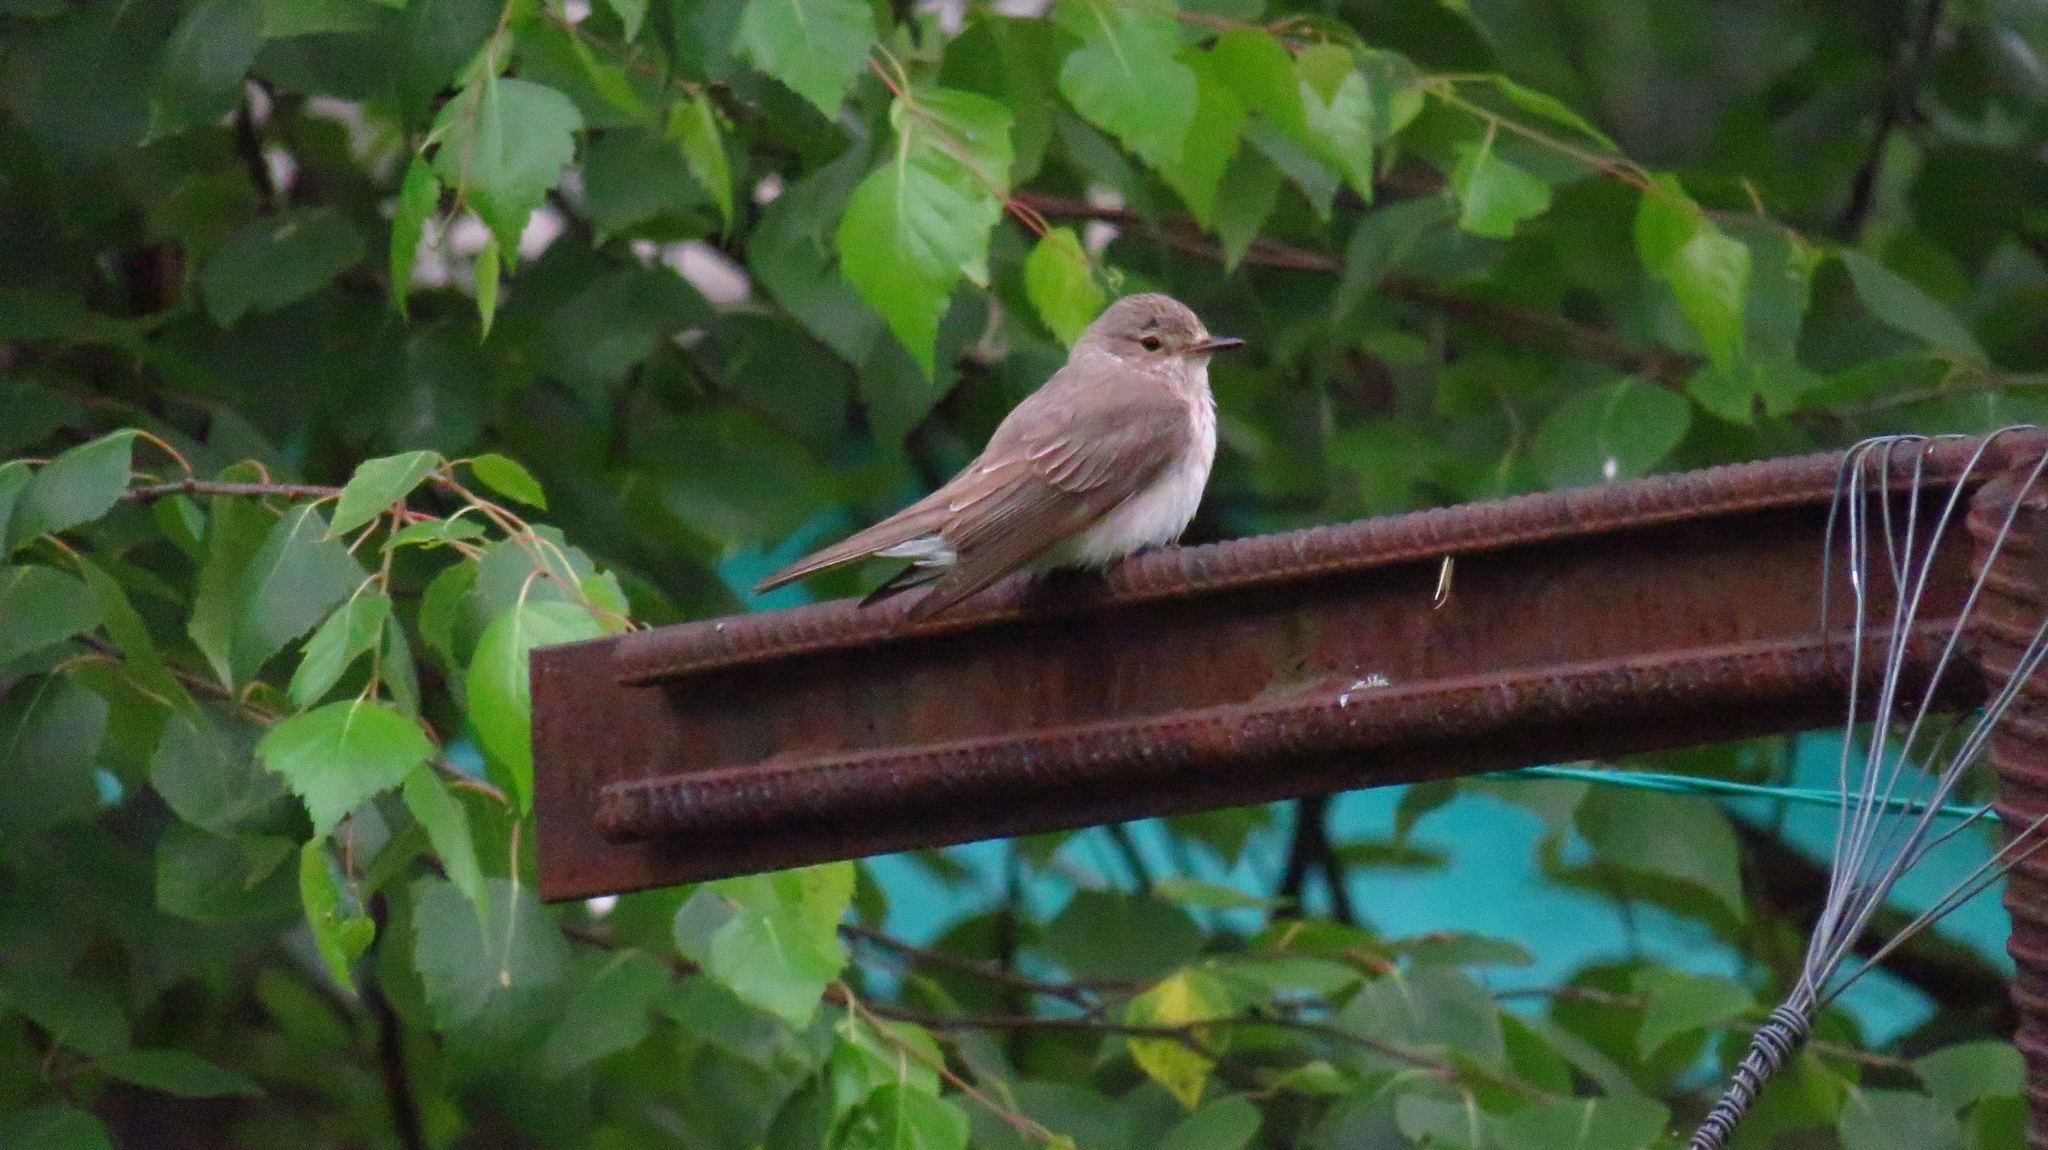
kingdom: Animalia
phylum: Chordata
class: Aves
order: Passeriformes
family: Muscicapidae
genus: Muscicapa
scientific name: Muscicapa striata
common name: Spotted flycatcher
